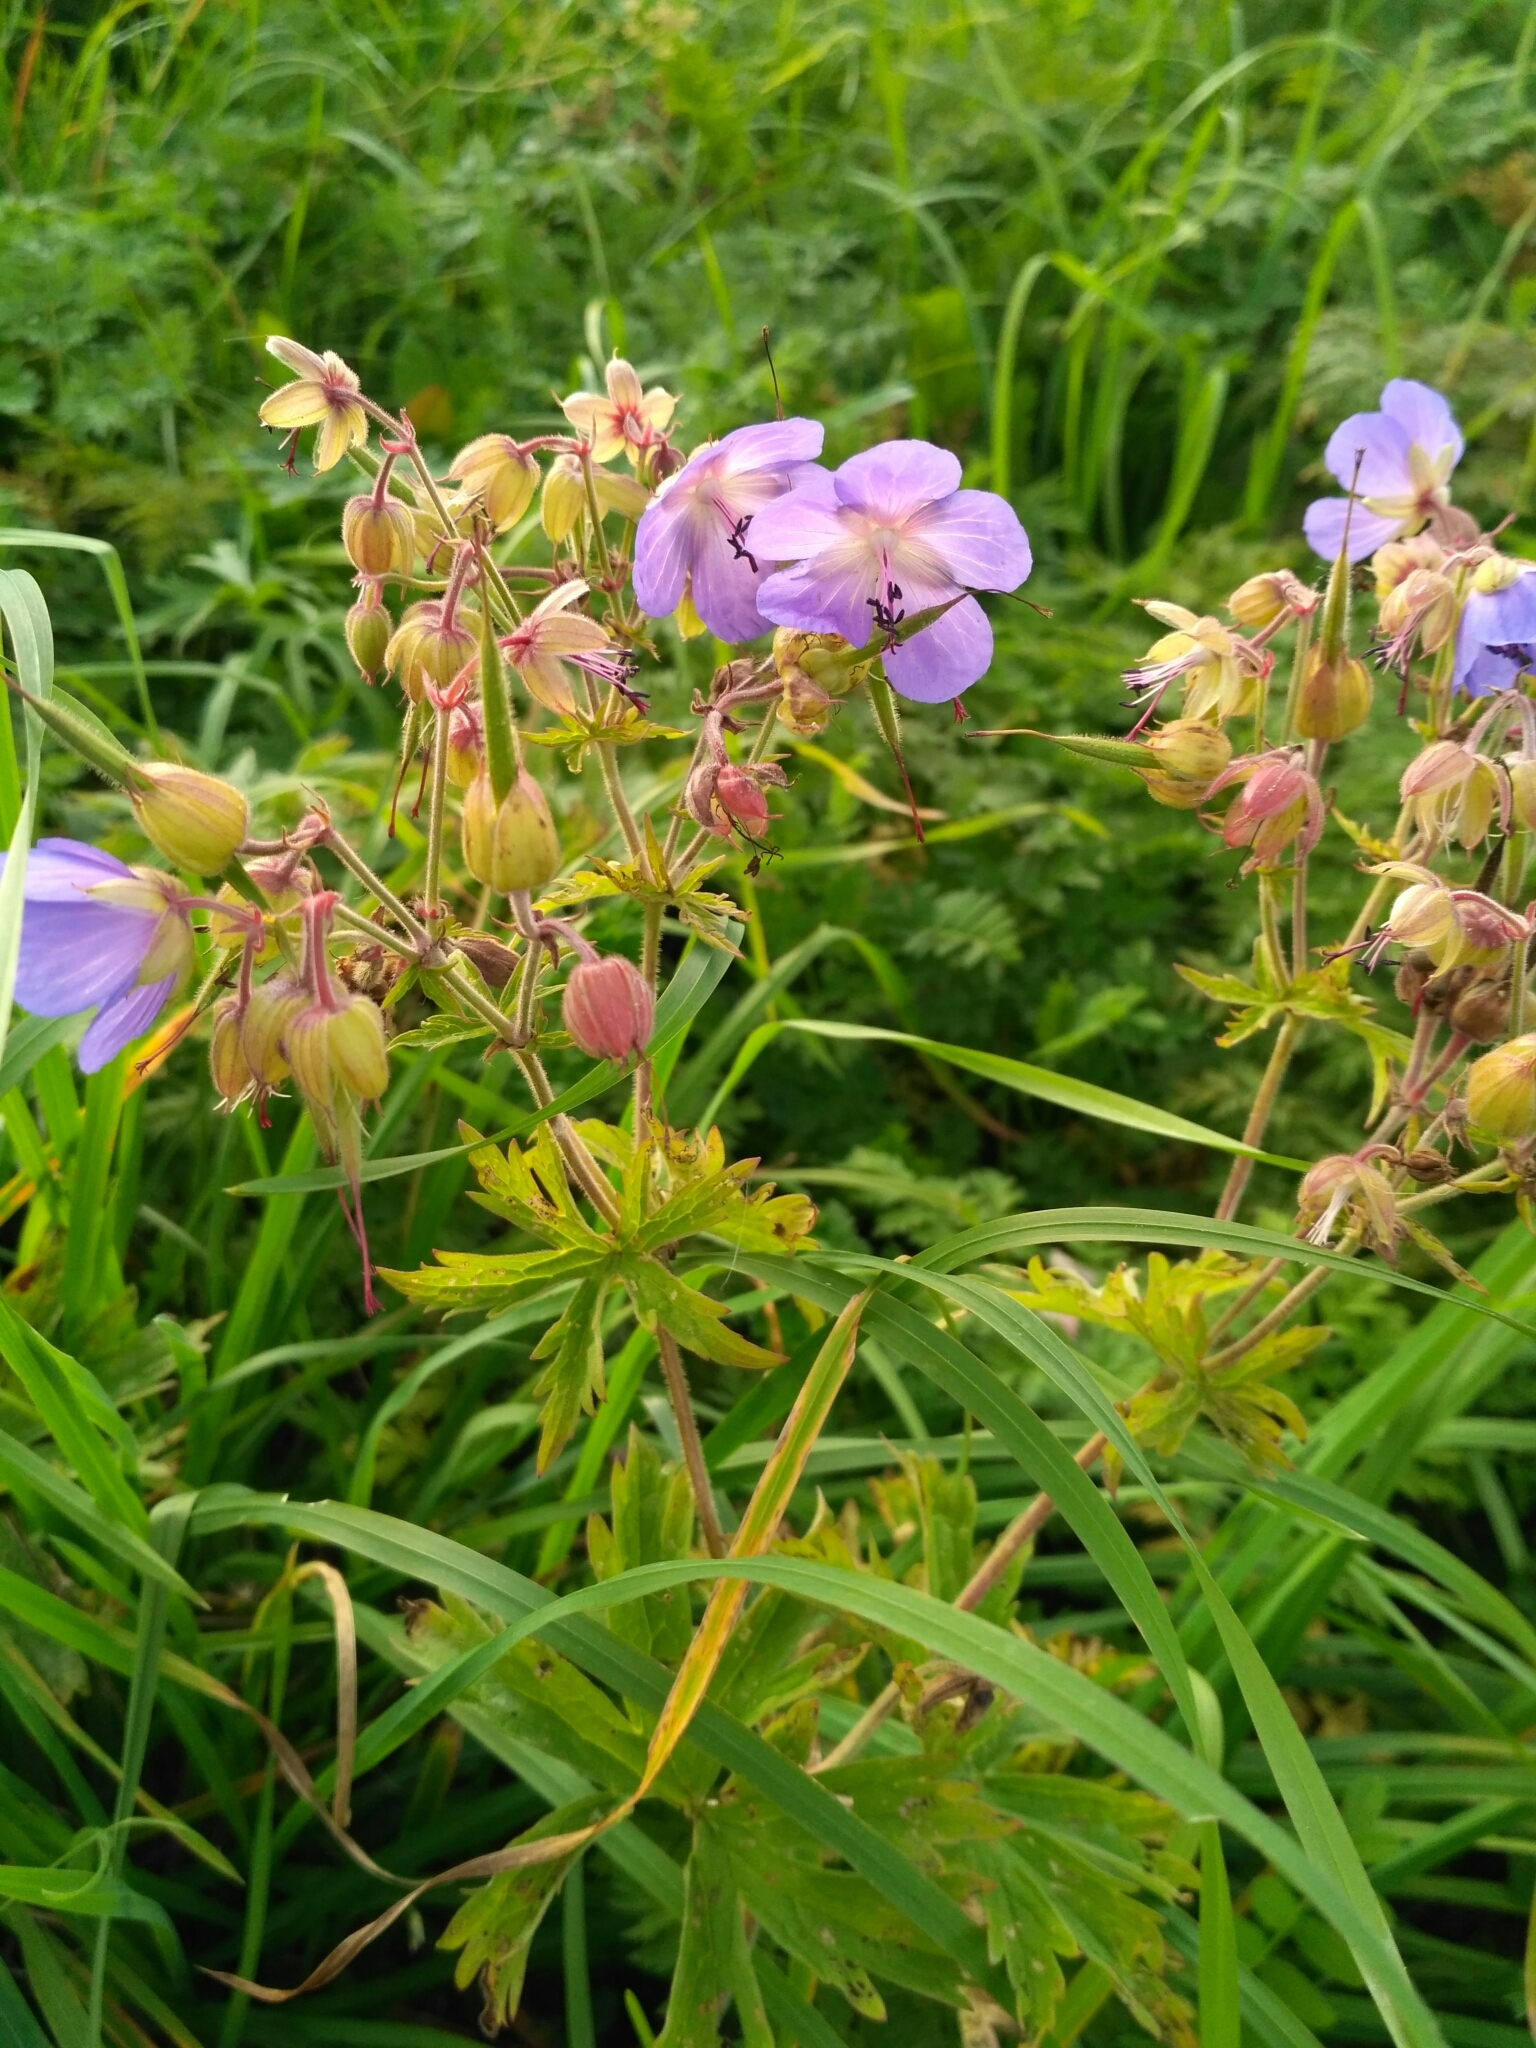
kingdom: Plantae
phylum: Tracheophyta
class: Magnoliopsida
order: Geraniales
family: Geraniaceae
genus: Geranium
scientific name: Geranium pratense
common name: Meadow crane's-bill
